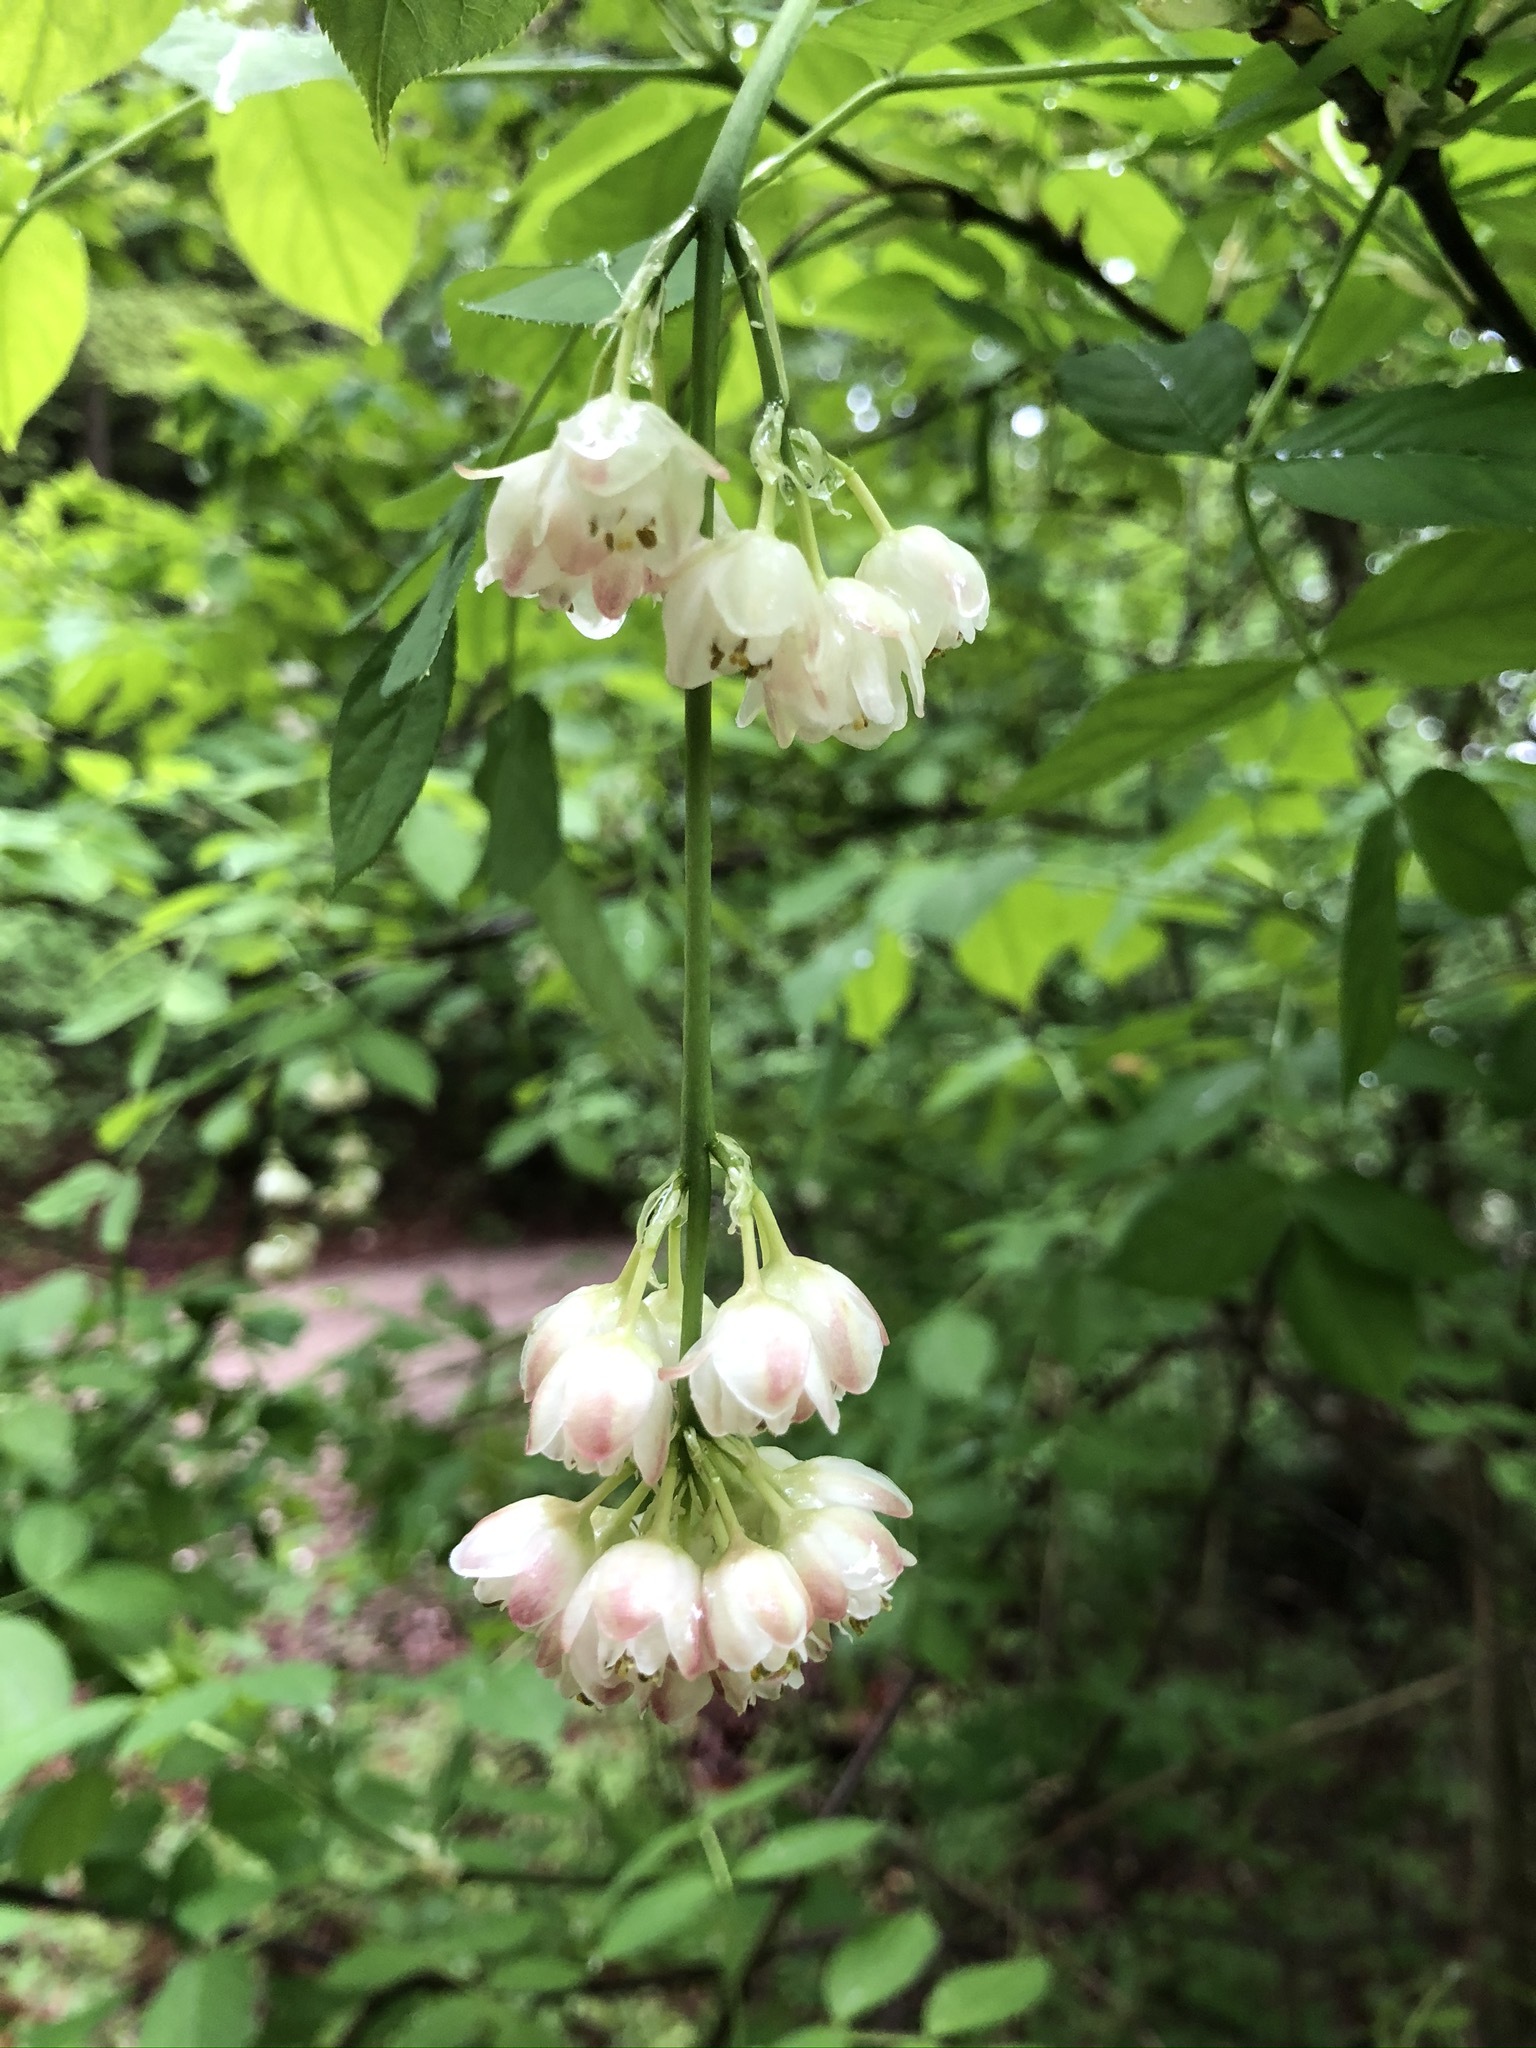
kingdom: Plantae
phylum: Tracheophyta
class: Magnoliopsida
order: Crossosomatales
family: Staphyleaceae
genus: Staphylea
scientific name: Staphylea pinnata
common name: Bladdernut
